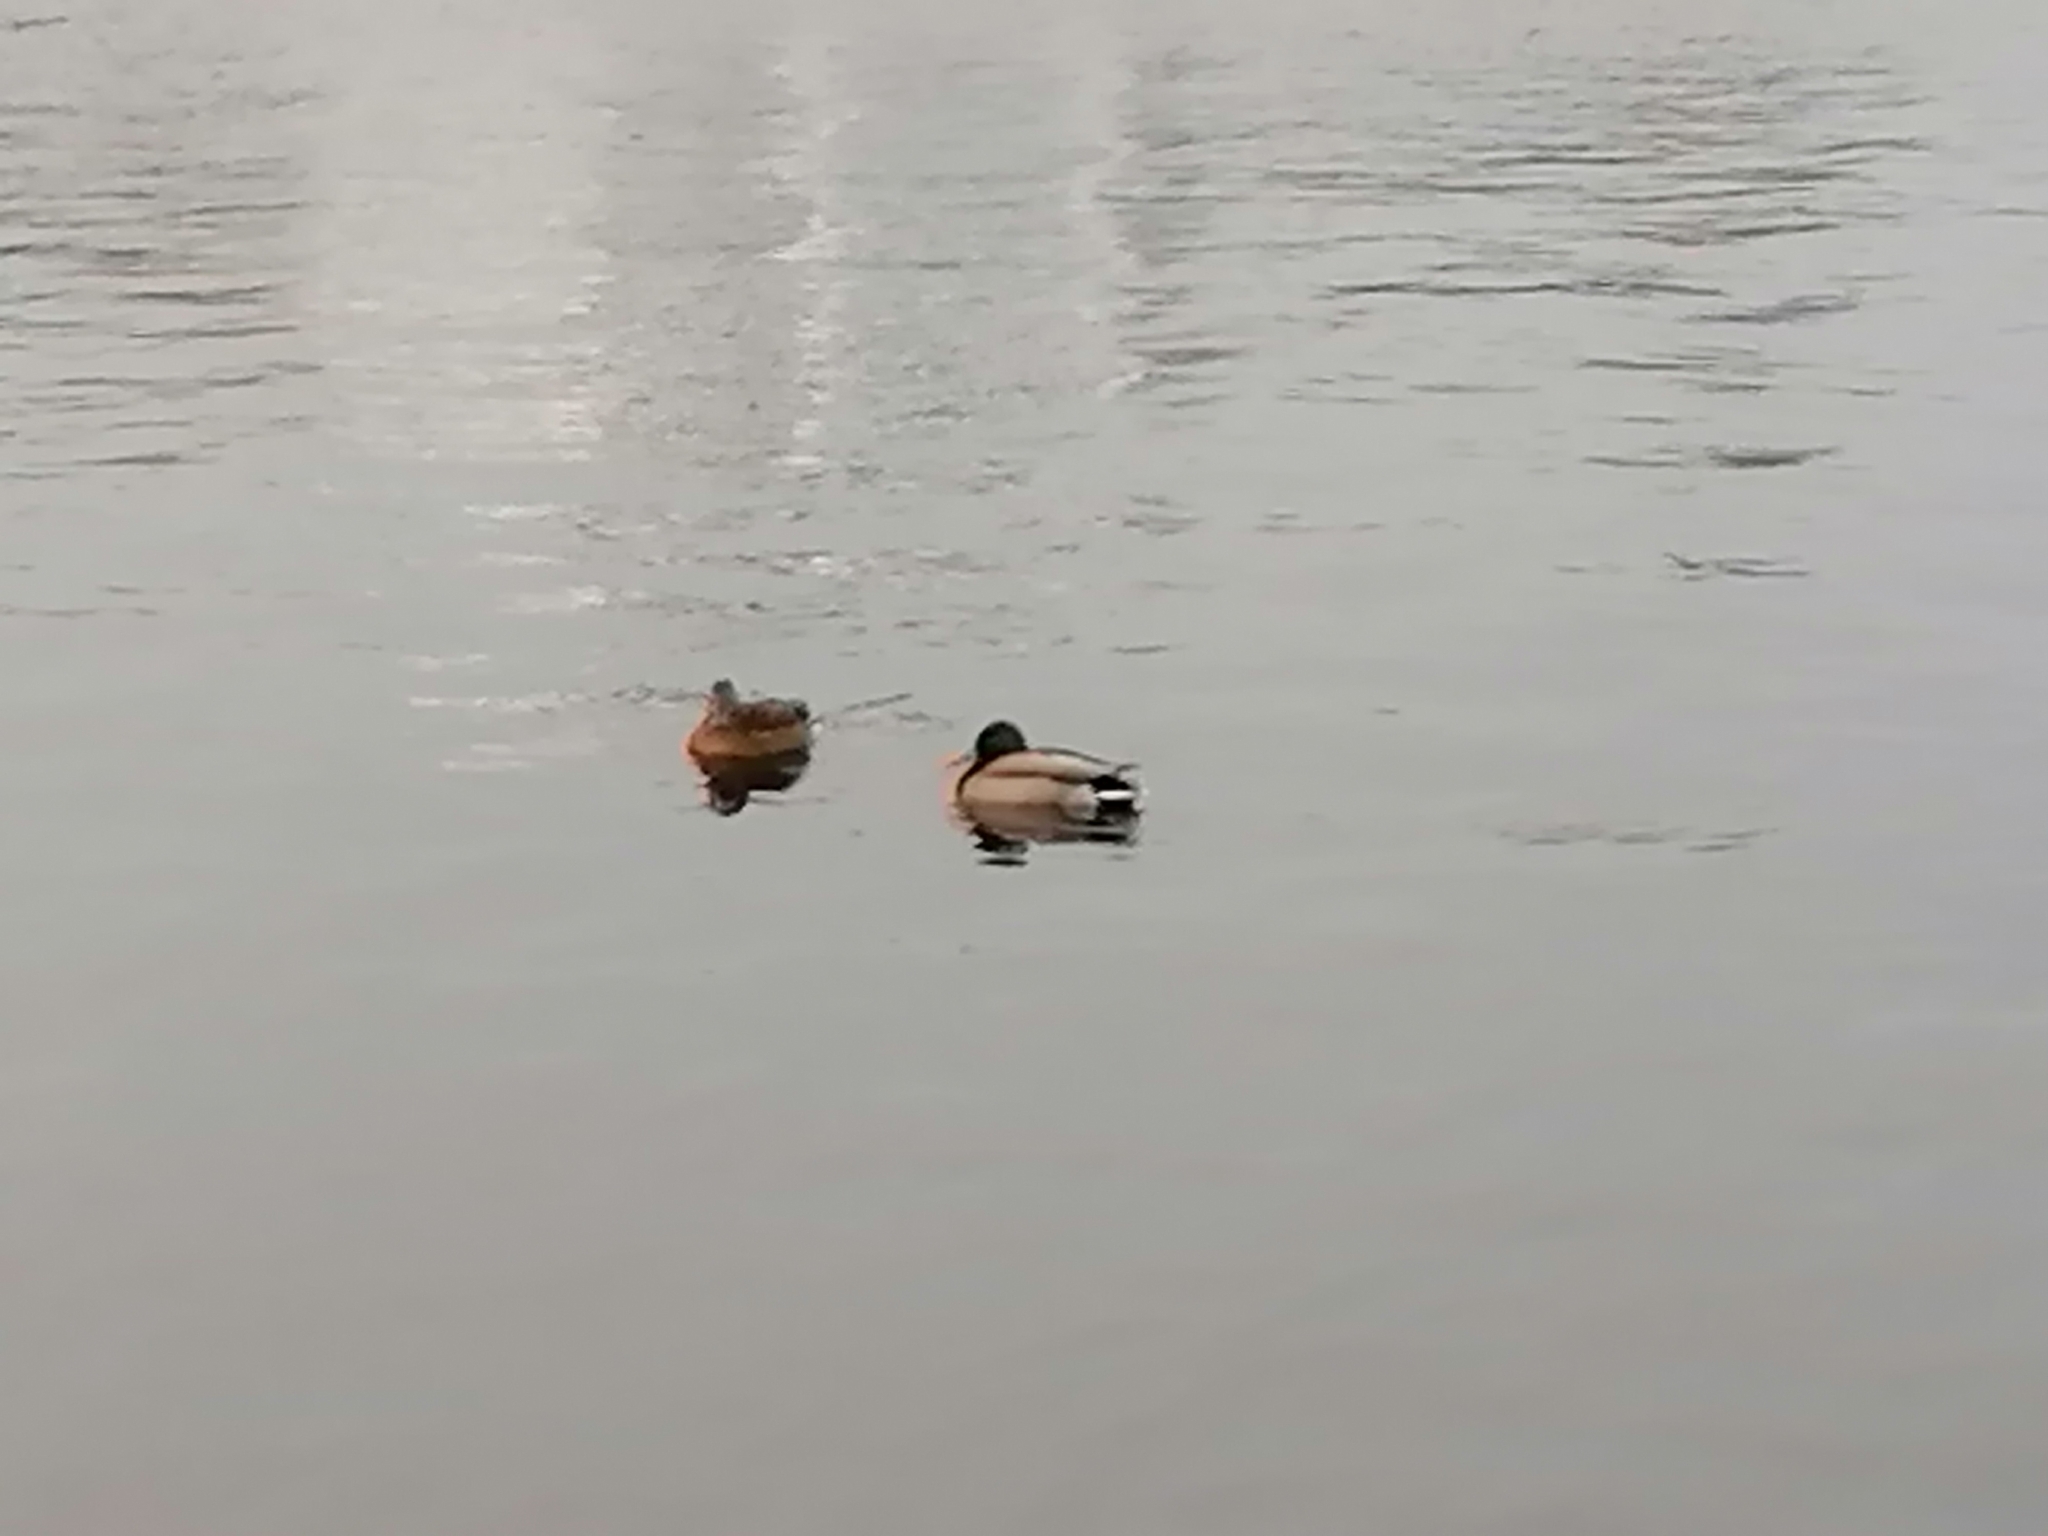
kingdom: Animalia
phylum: Chordata
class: Aves
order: Anseriformes
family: Anatidae
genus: Anas
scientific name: Anas platyrhynchos
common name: Mallard
